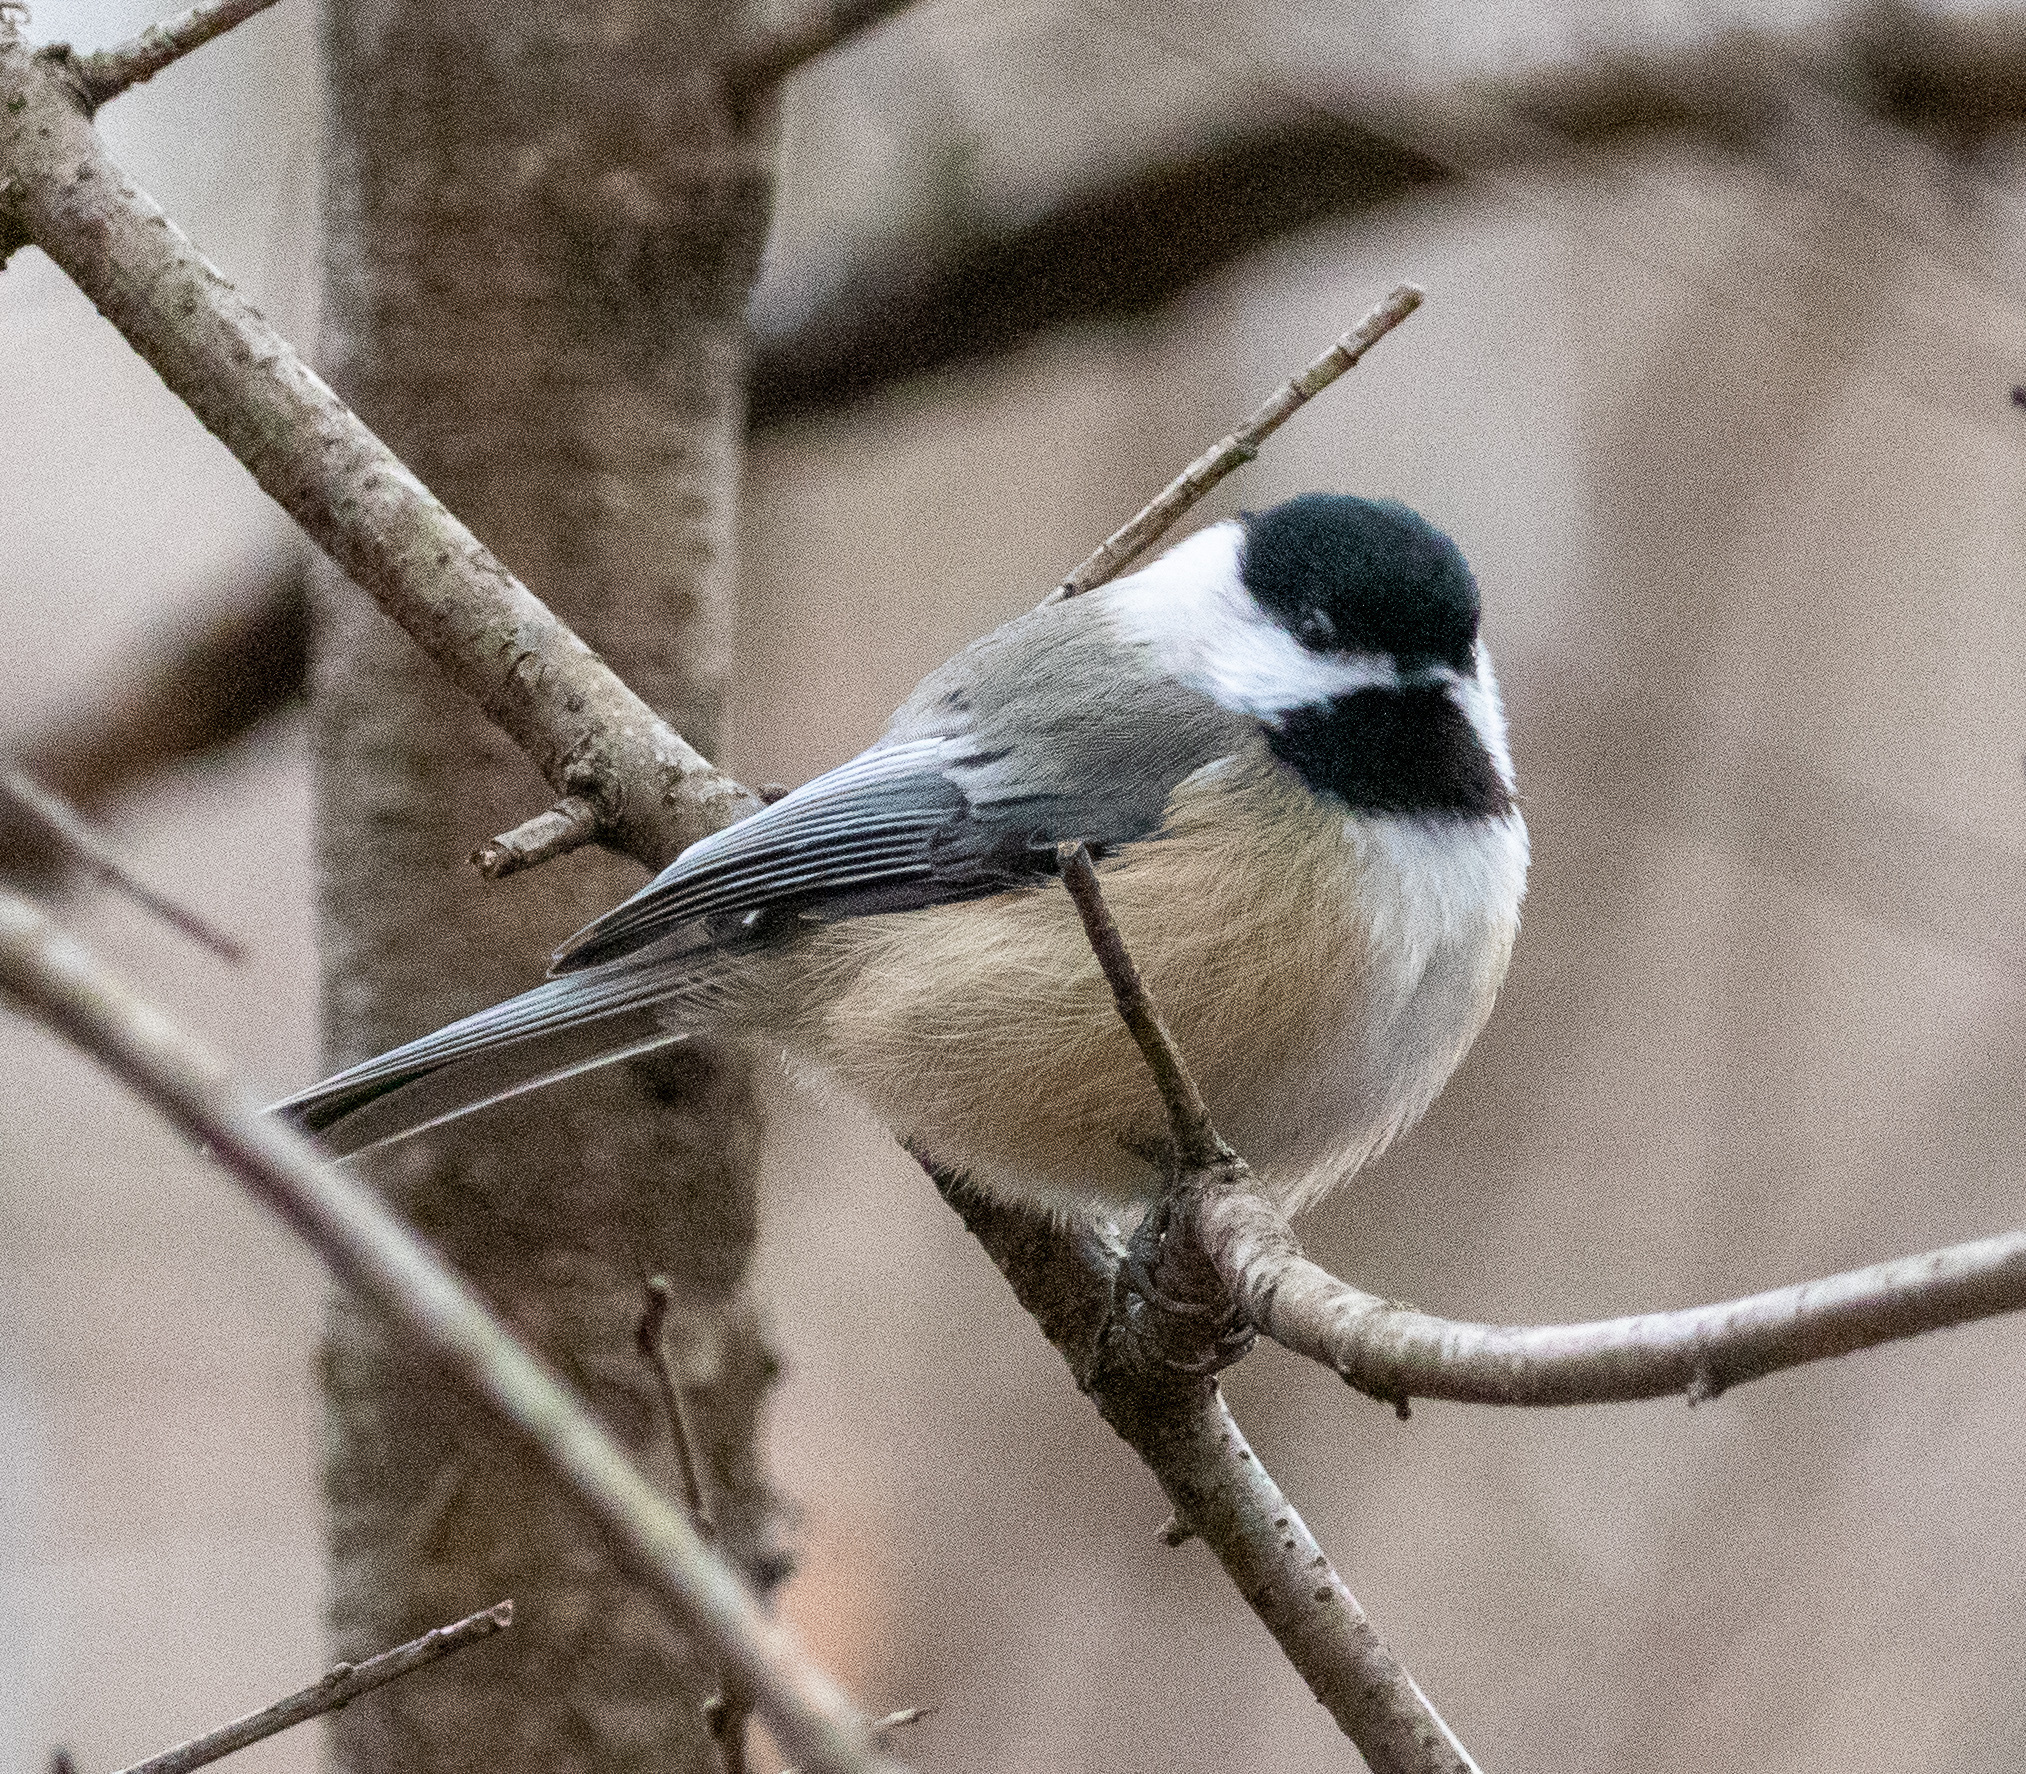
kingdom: Animalia
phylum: Chordata
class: Aves
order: Passeriformes
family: Paridae
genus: Poecile
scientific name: Poecile atricapillus
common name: Black-capped chickadee
